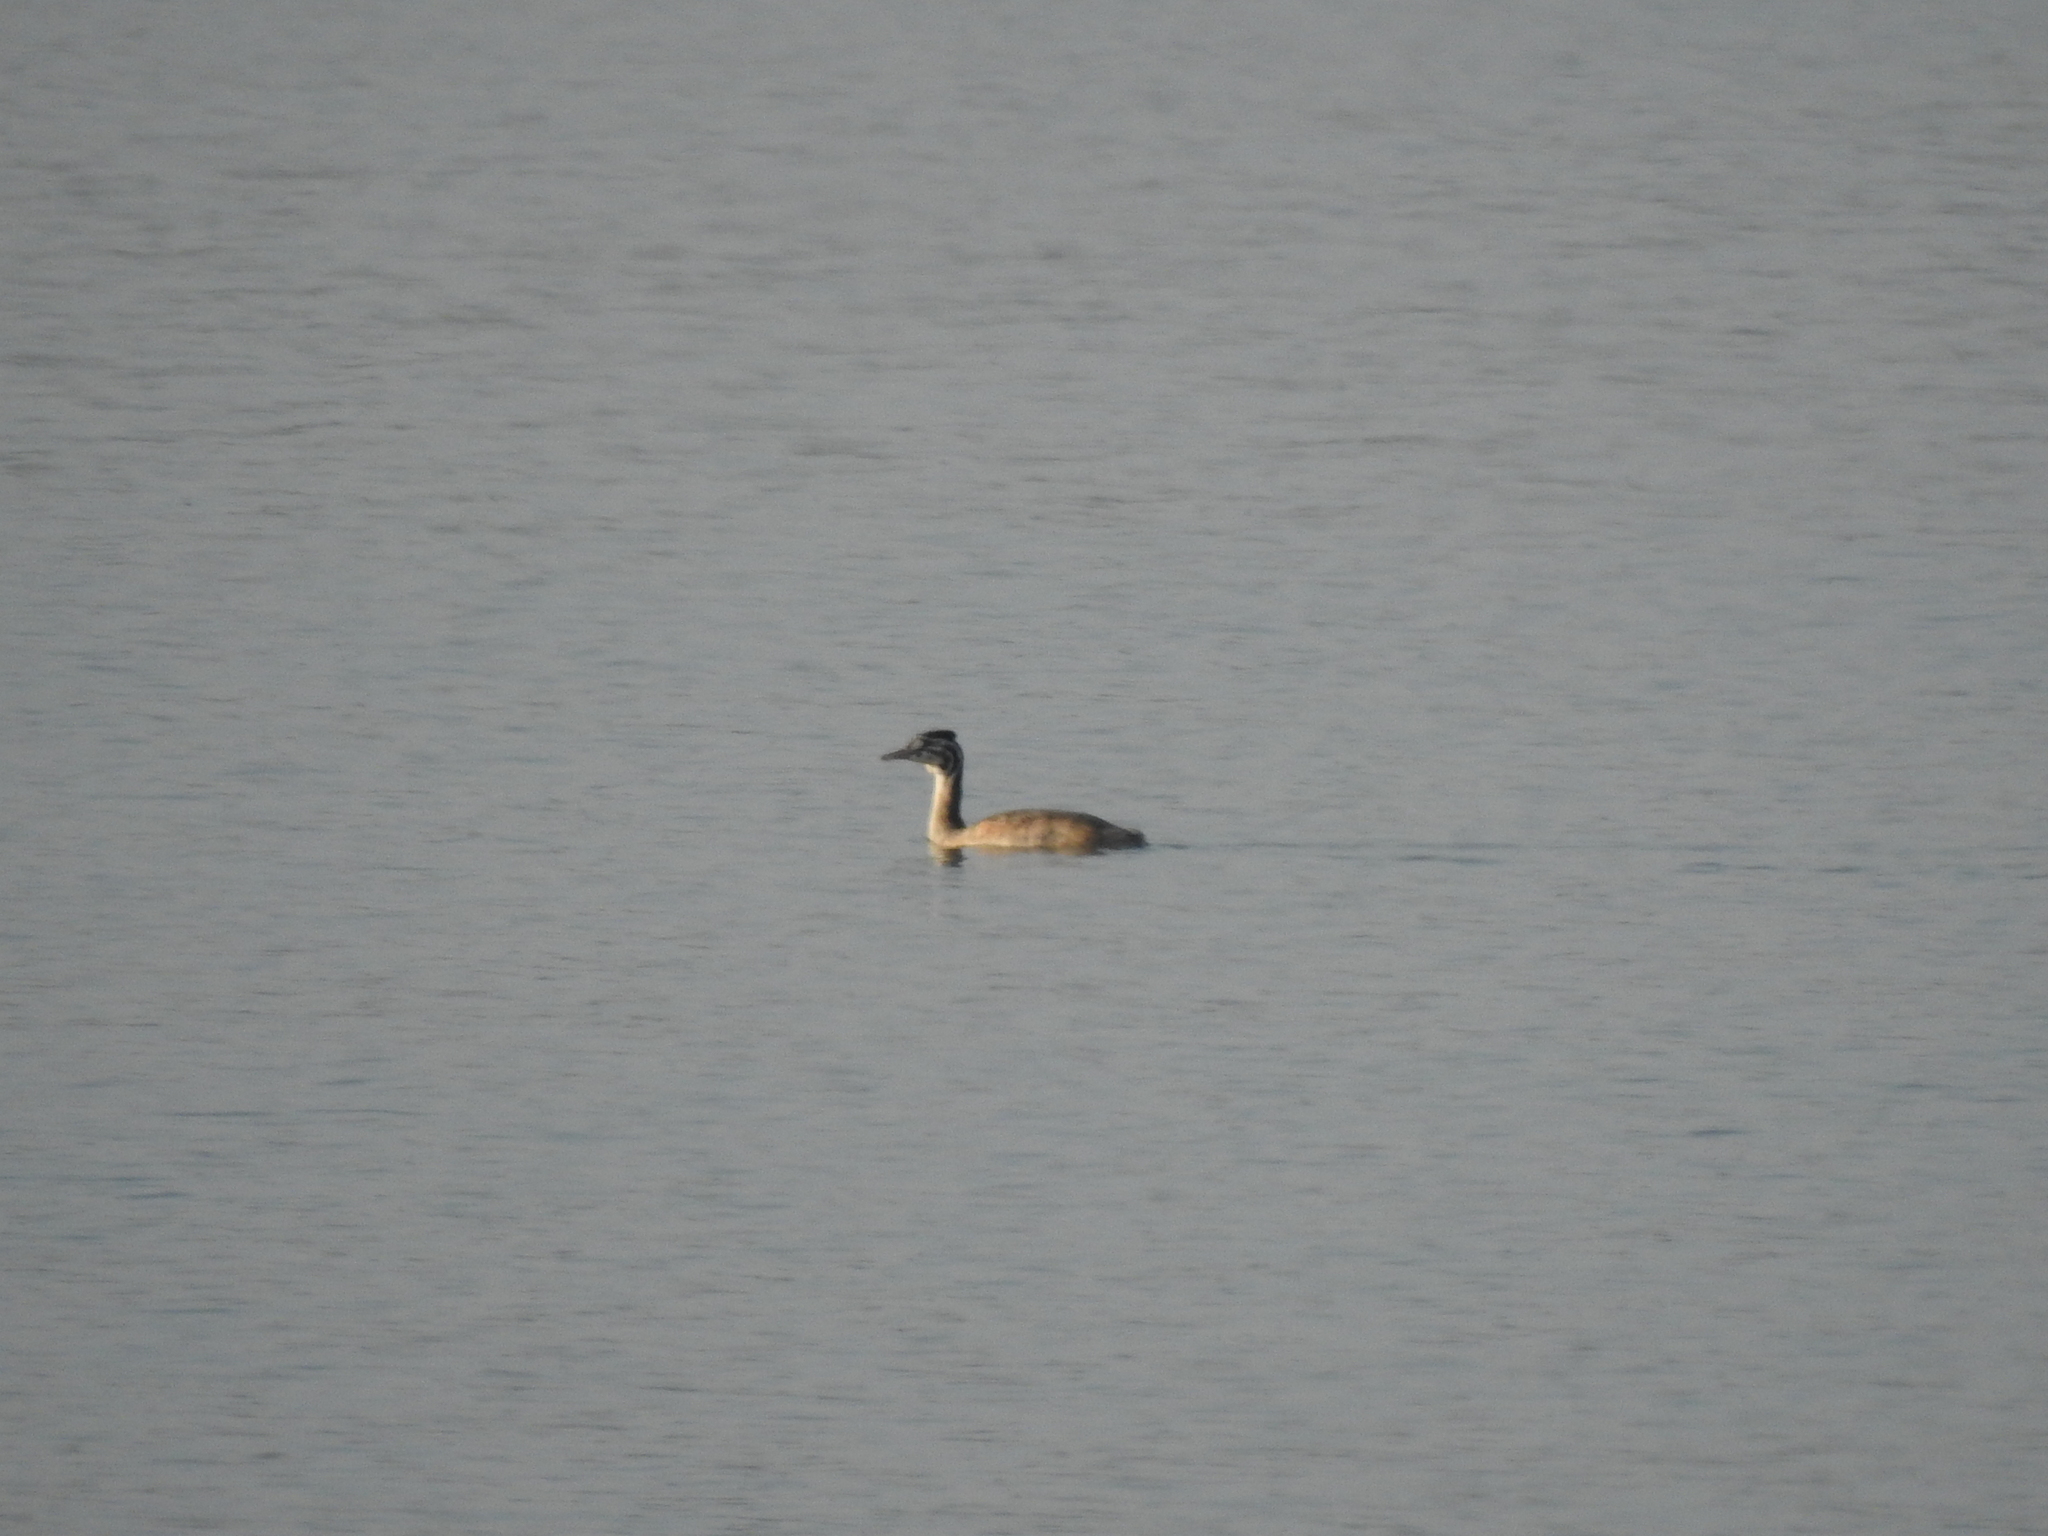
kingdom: Animalia
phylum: Chordata
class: Aves
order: Podicipediformes
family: Podicipedidae
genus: Podiceps
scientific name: Podiceps cristatus
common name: Great crested grebe
